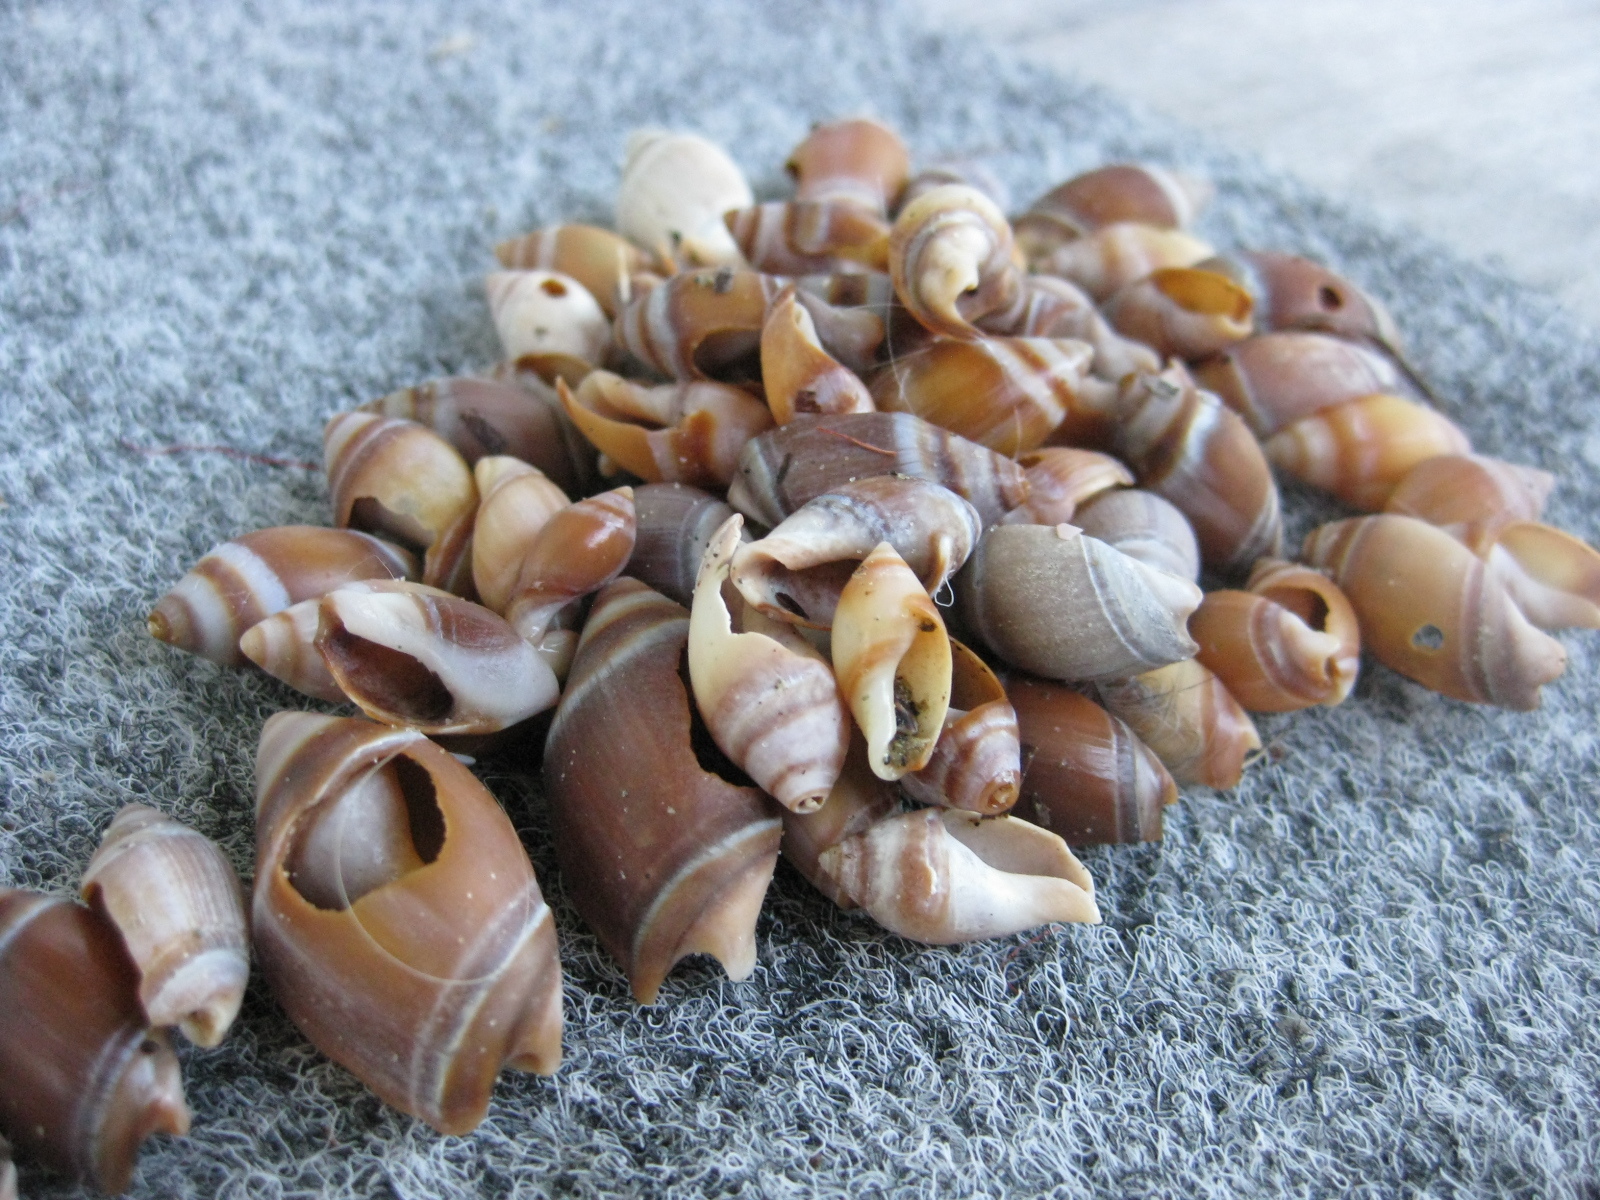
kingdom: Animalia
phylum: Mollusca
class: Gastropoda
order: Neogastropoda
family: Ancillariidae
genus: Amalda
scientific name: Amalda australis
